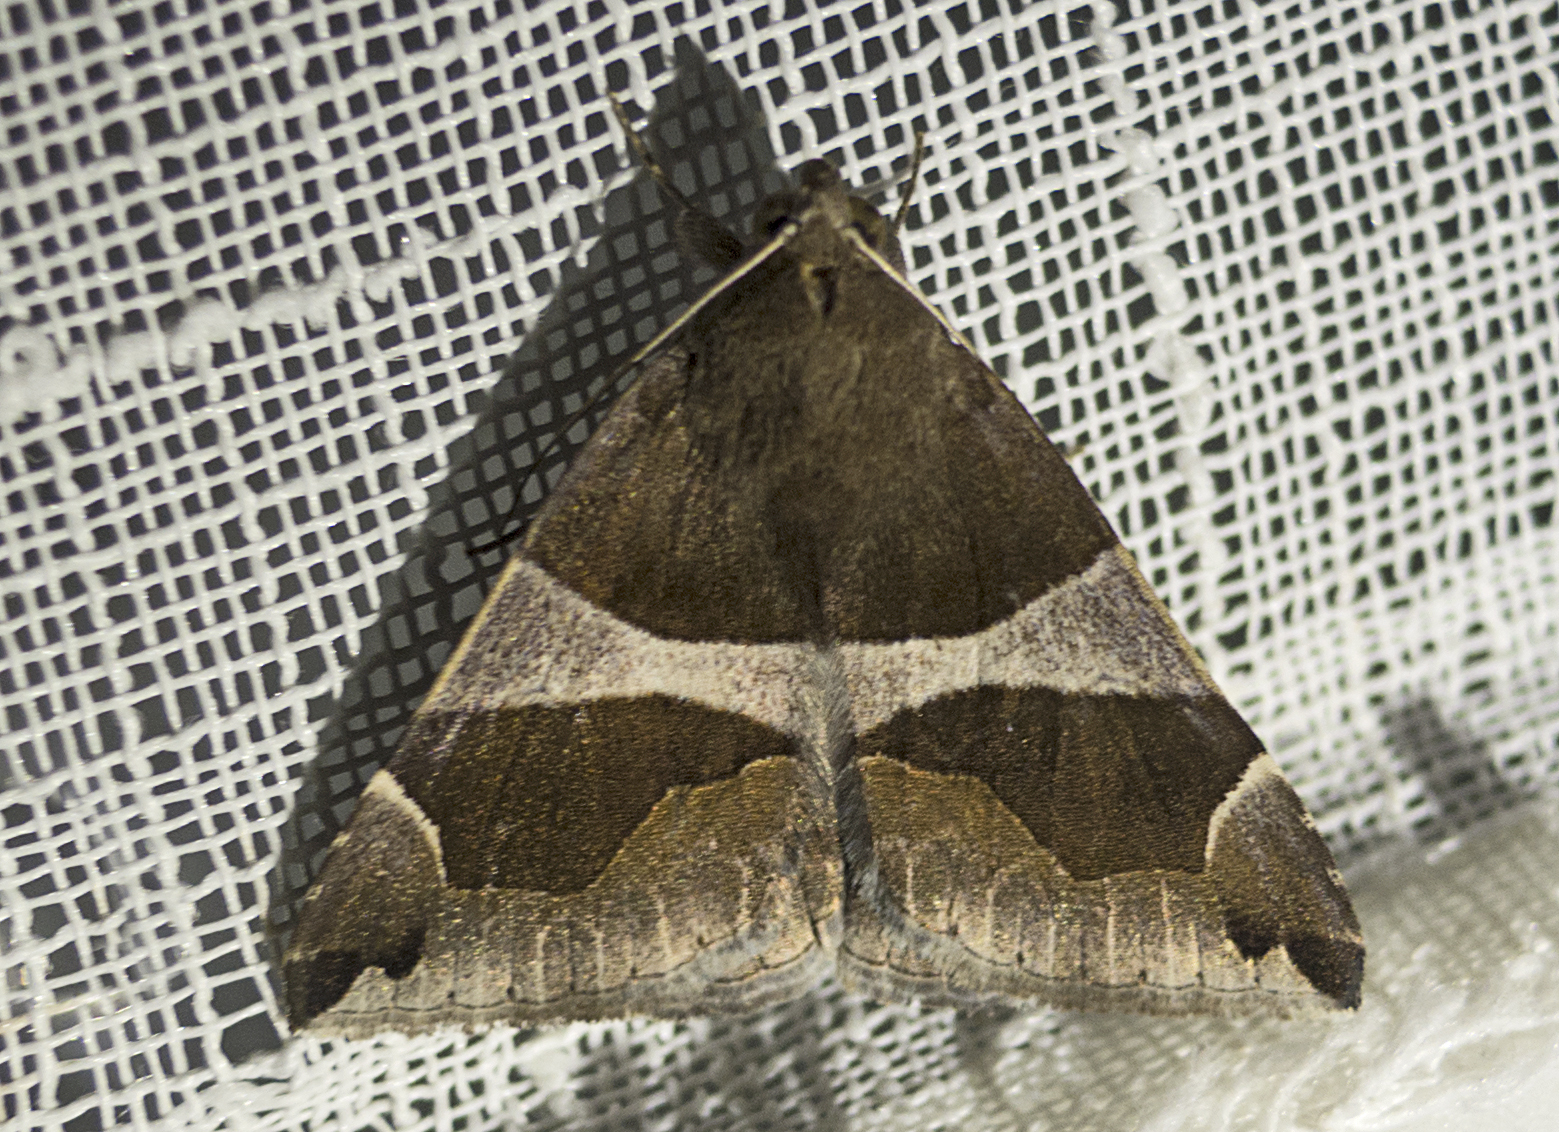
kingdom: Animalia
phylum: Arthropoda
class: Insecta
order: Lepidoptera
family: Erebidae
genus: Dysgonia
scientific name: Dysgonia algira
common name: Passenger
